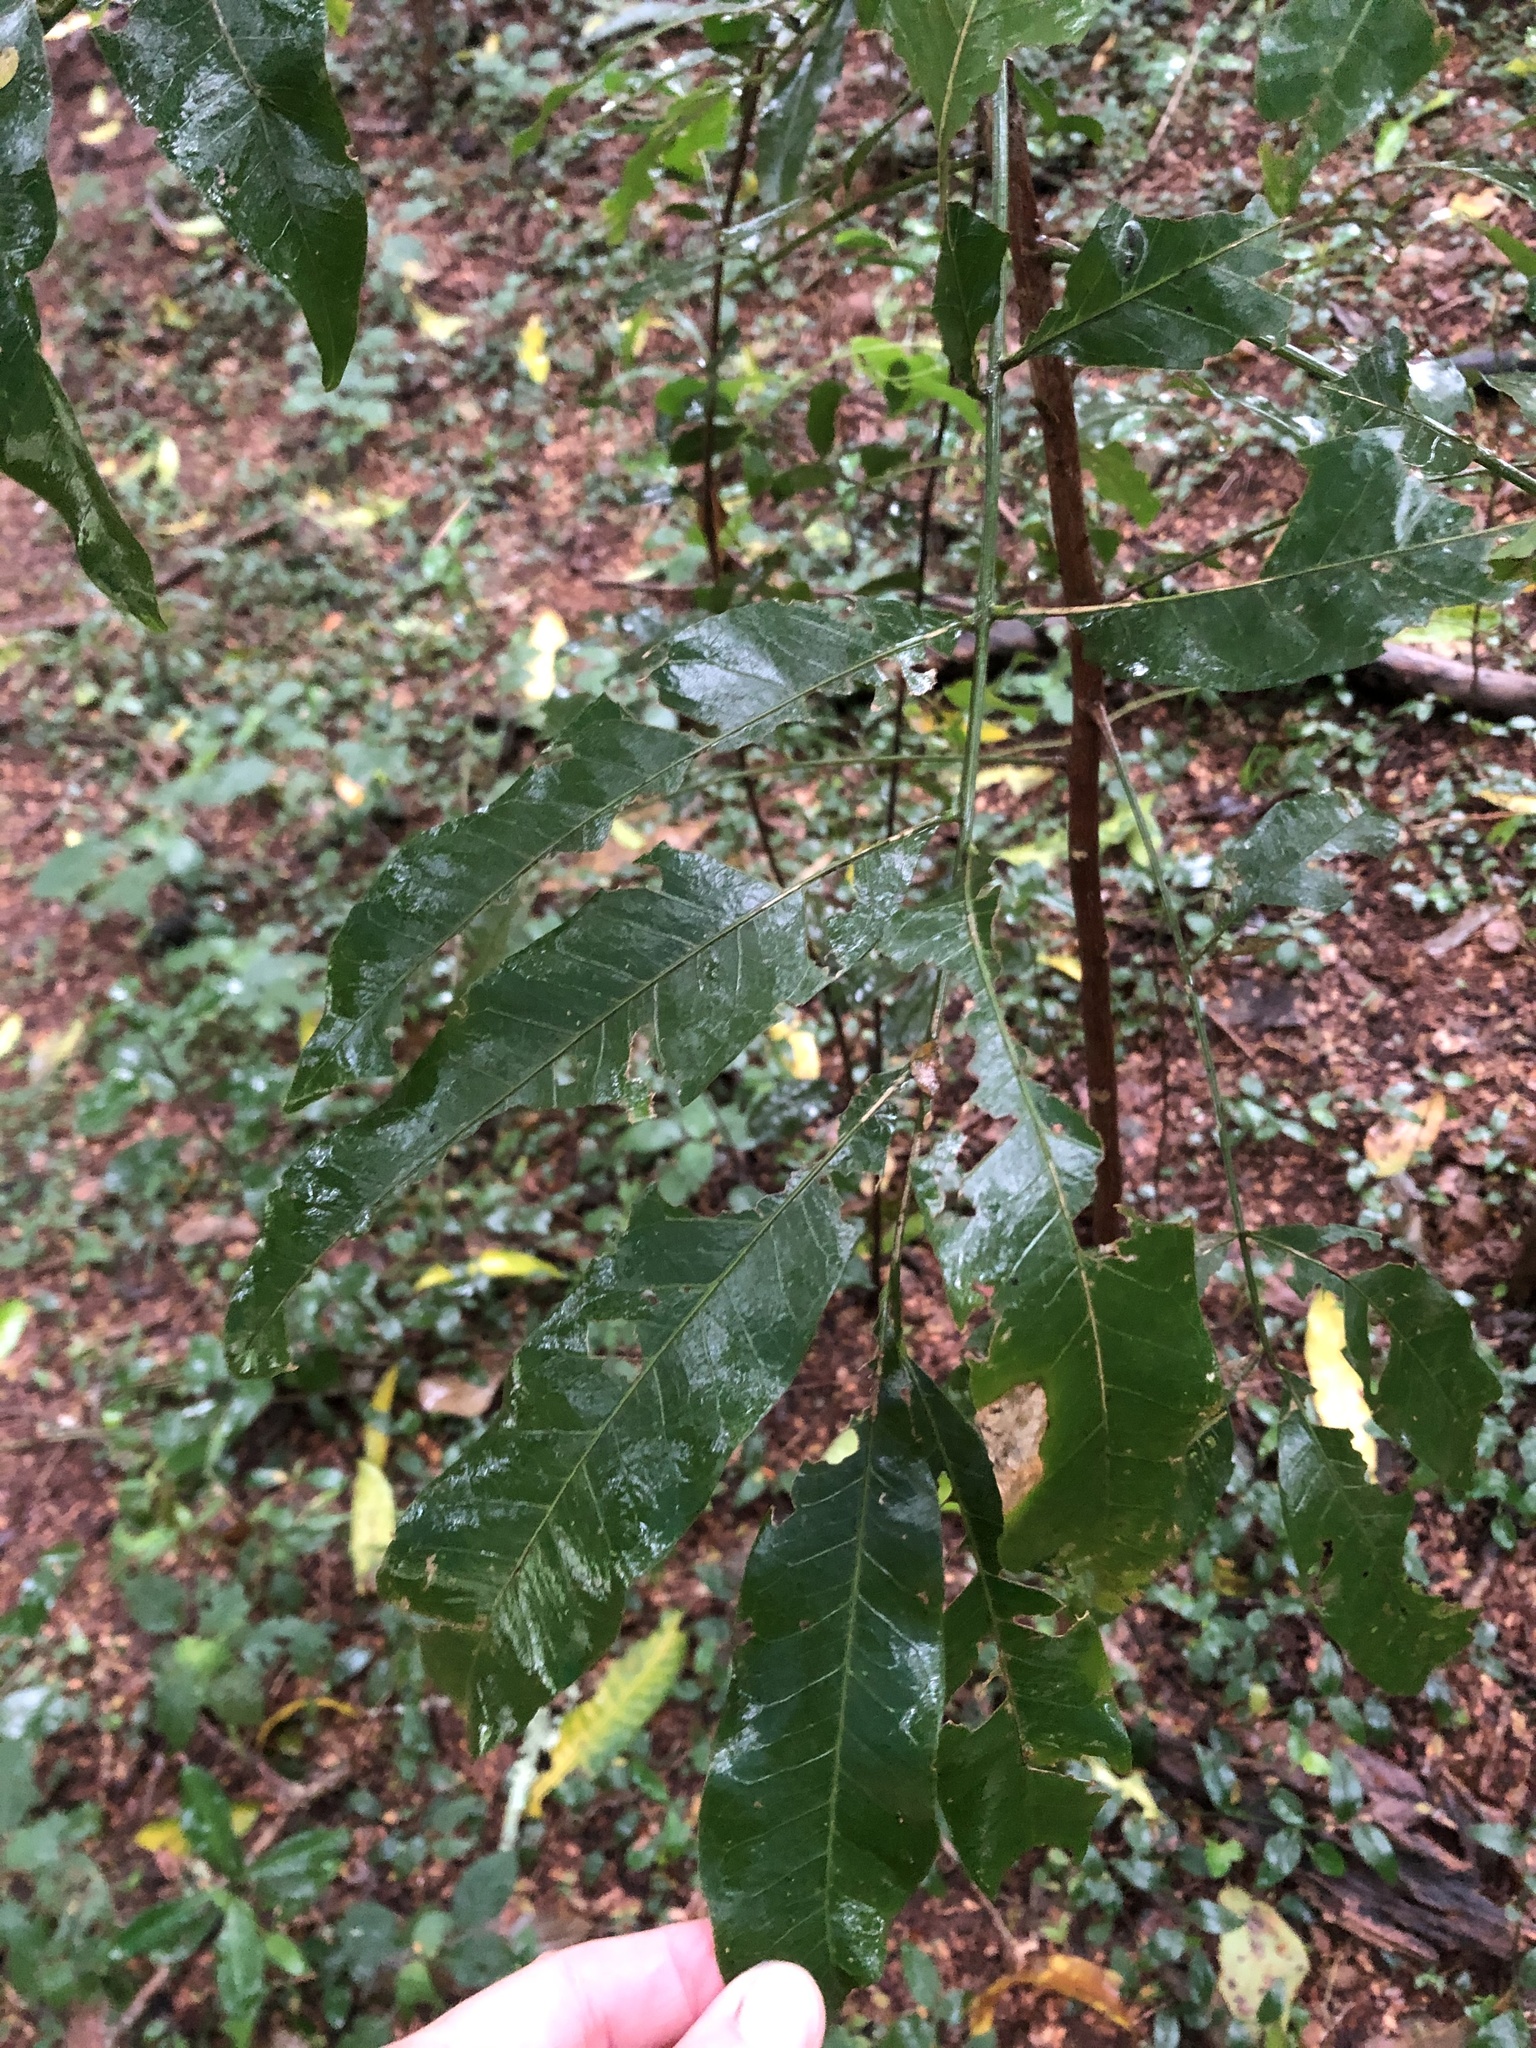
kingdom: Plantae
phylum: Tracheophyta
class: Magnoliopsida
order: Gentianales
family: Rubiaceae
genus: Psychotria
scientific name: Psychotria capensis
